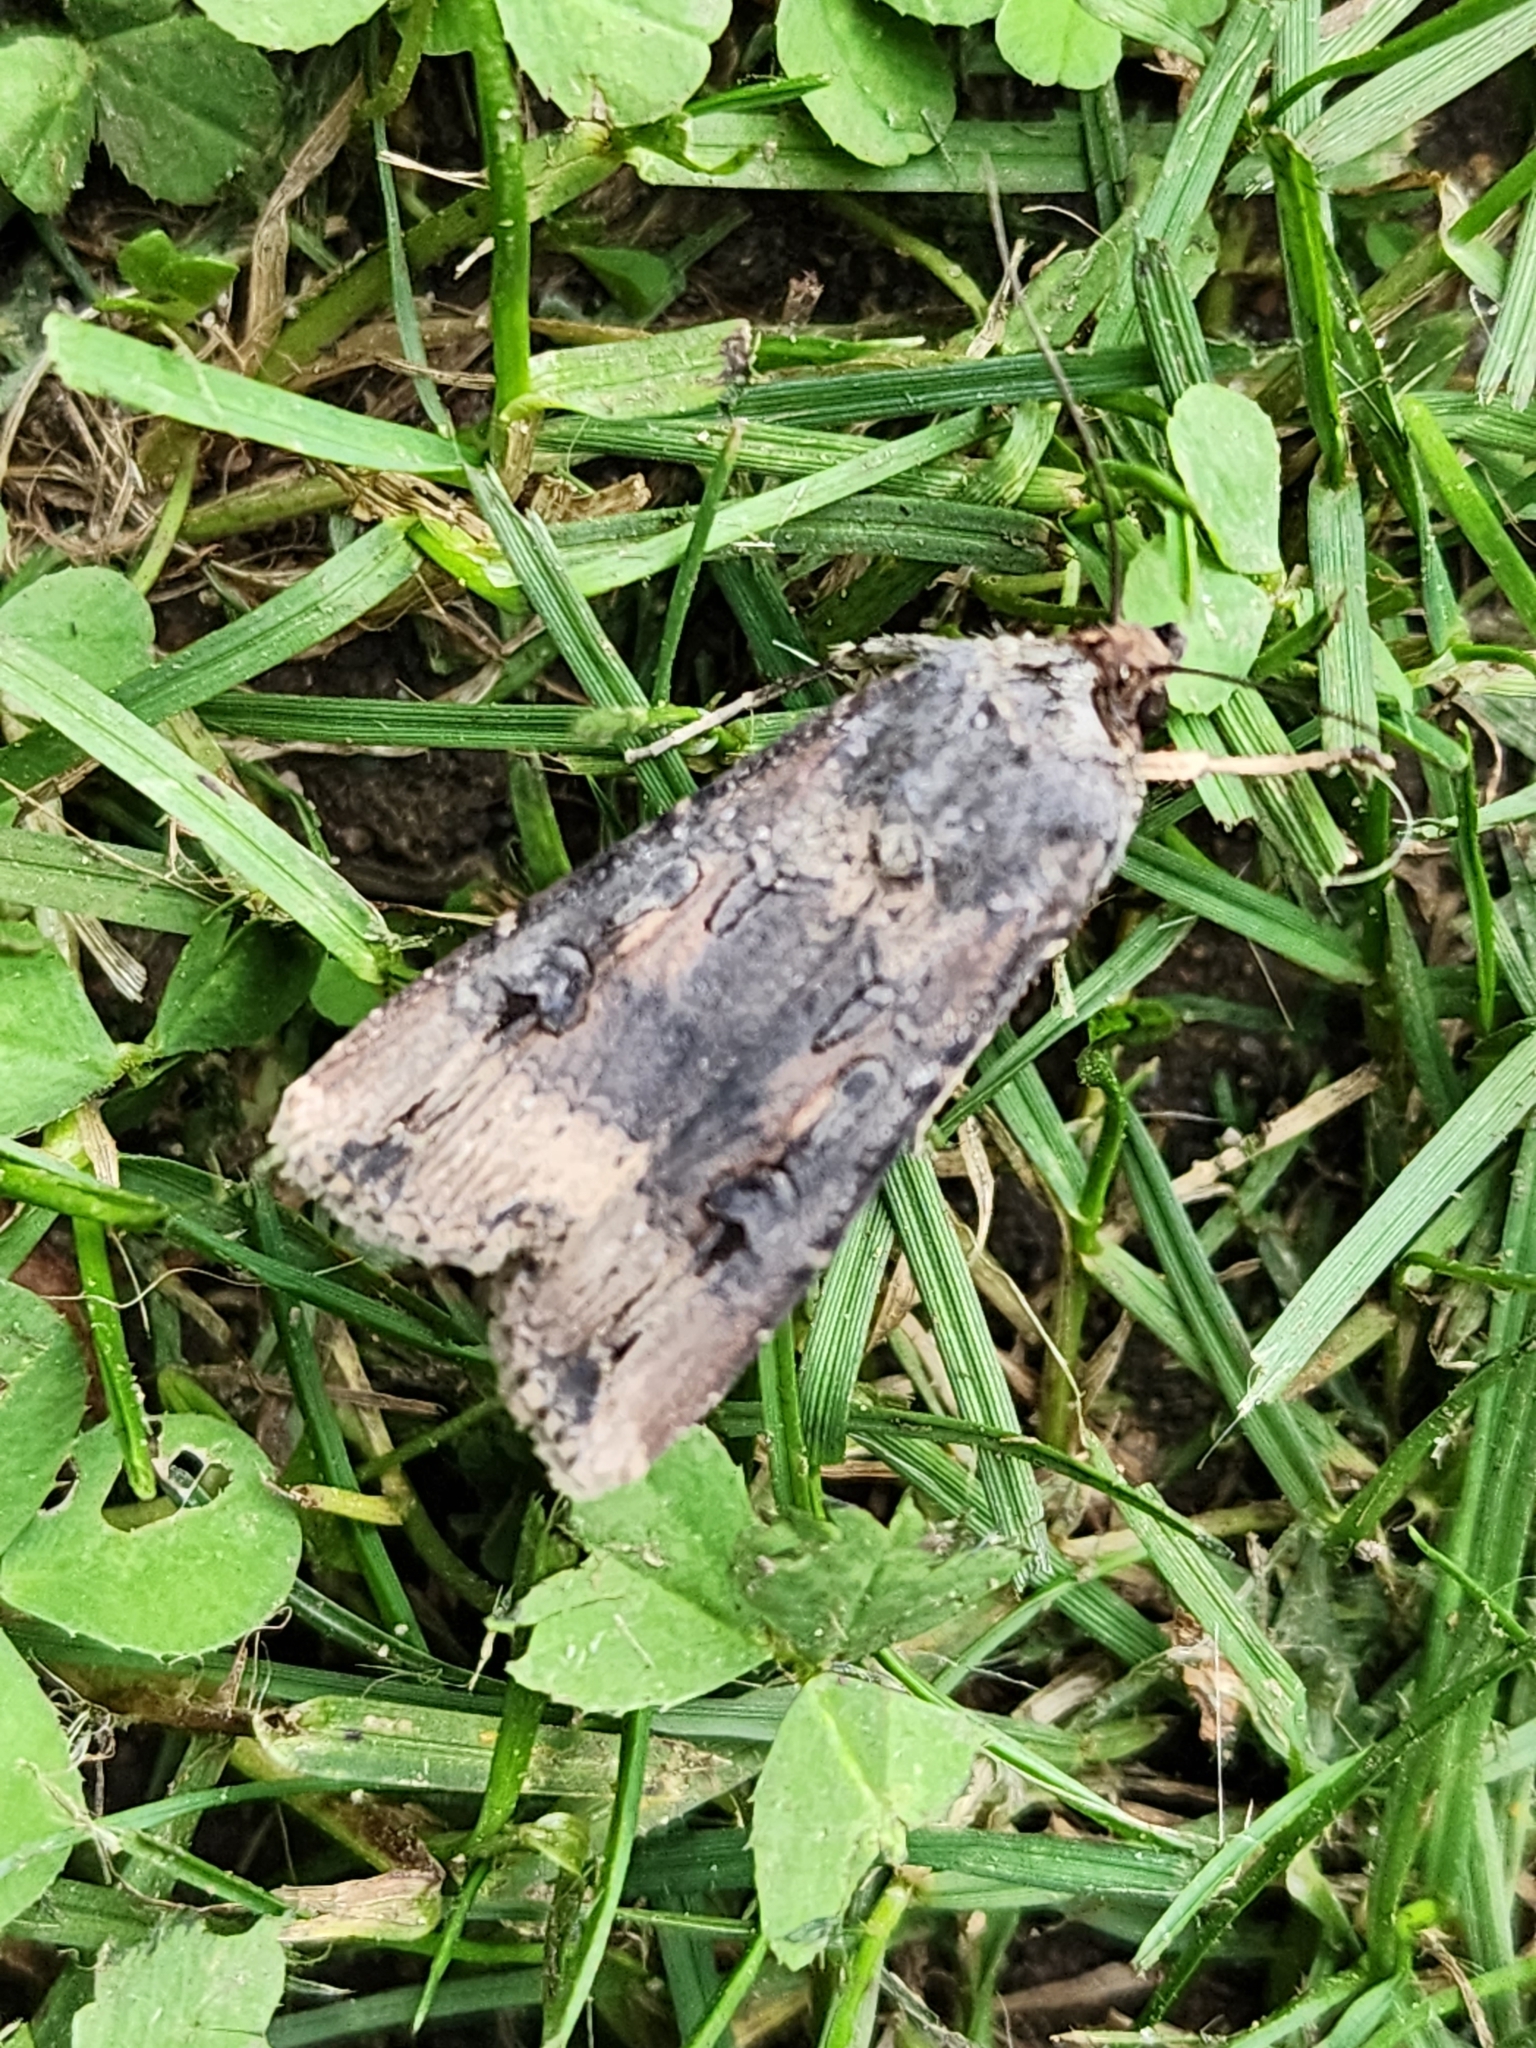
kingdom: Animalia
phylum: Arthropoda
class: Insecta
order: Lepidoptera
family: Noctuidae
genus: Agrotis
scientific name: Agrotis ipsilon
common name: Dark sword-grass
